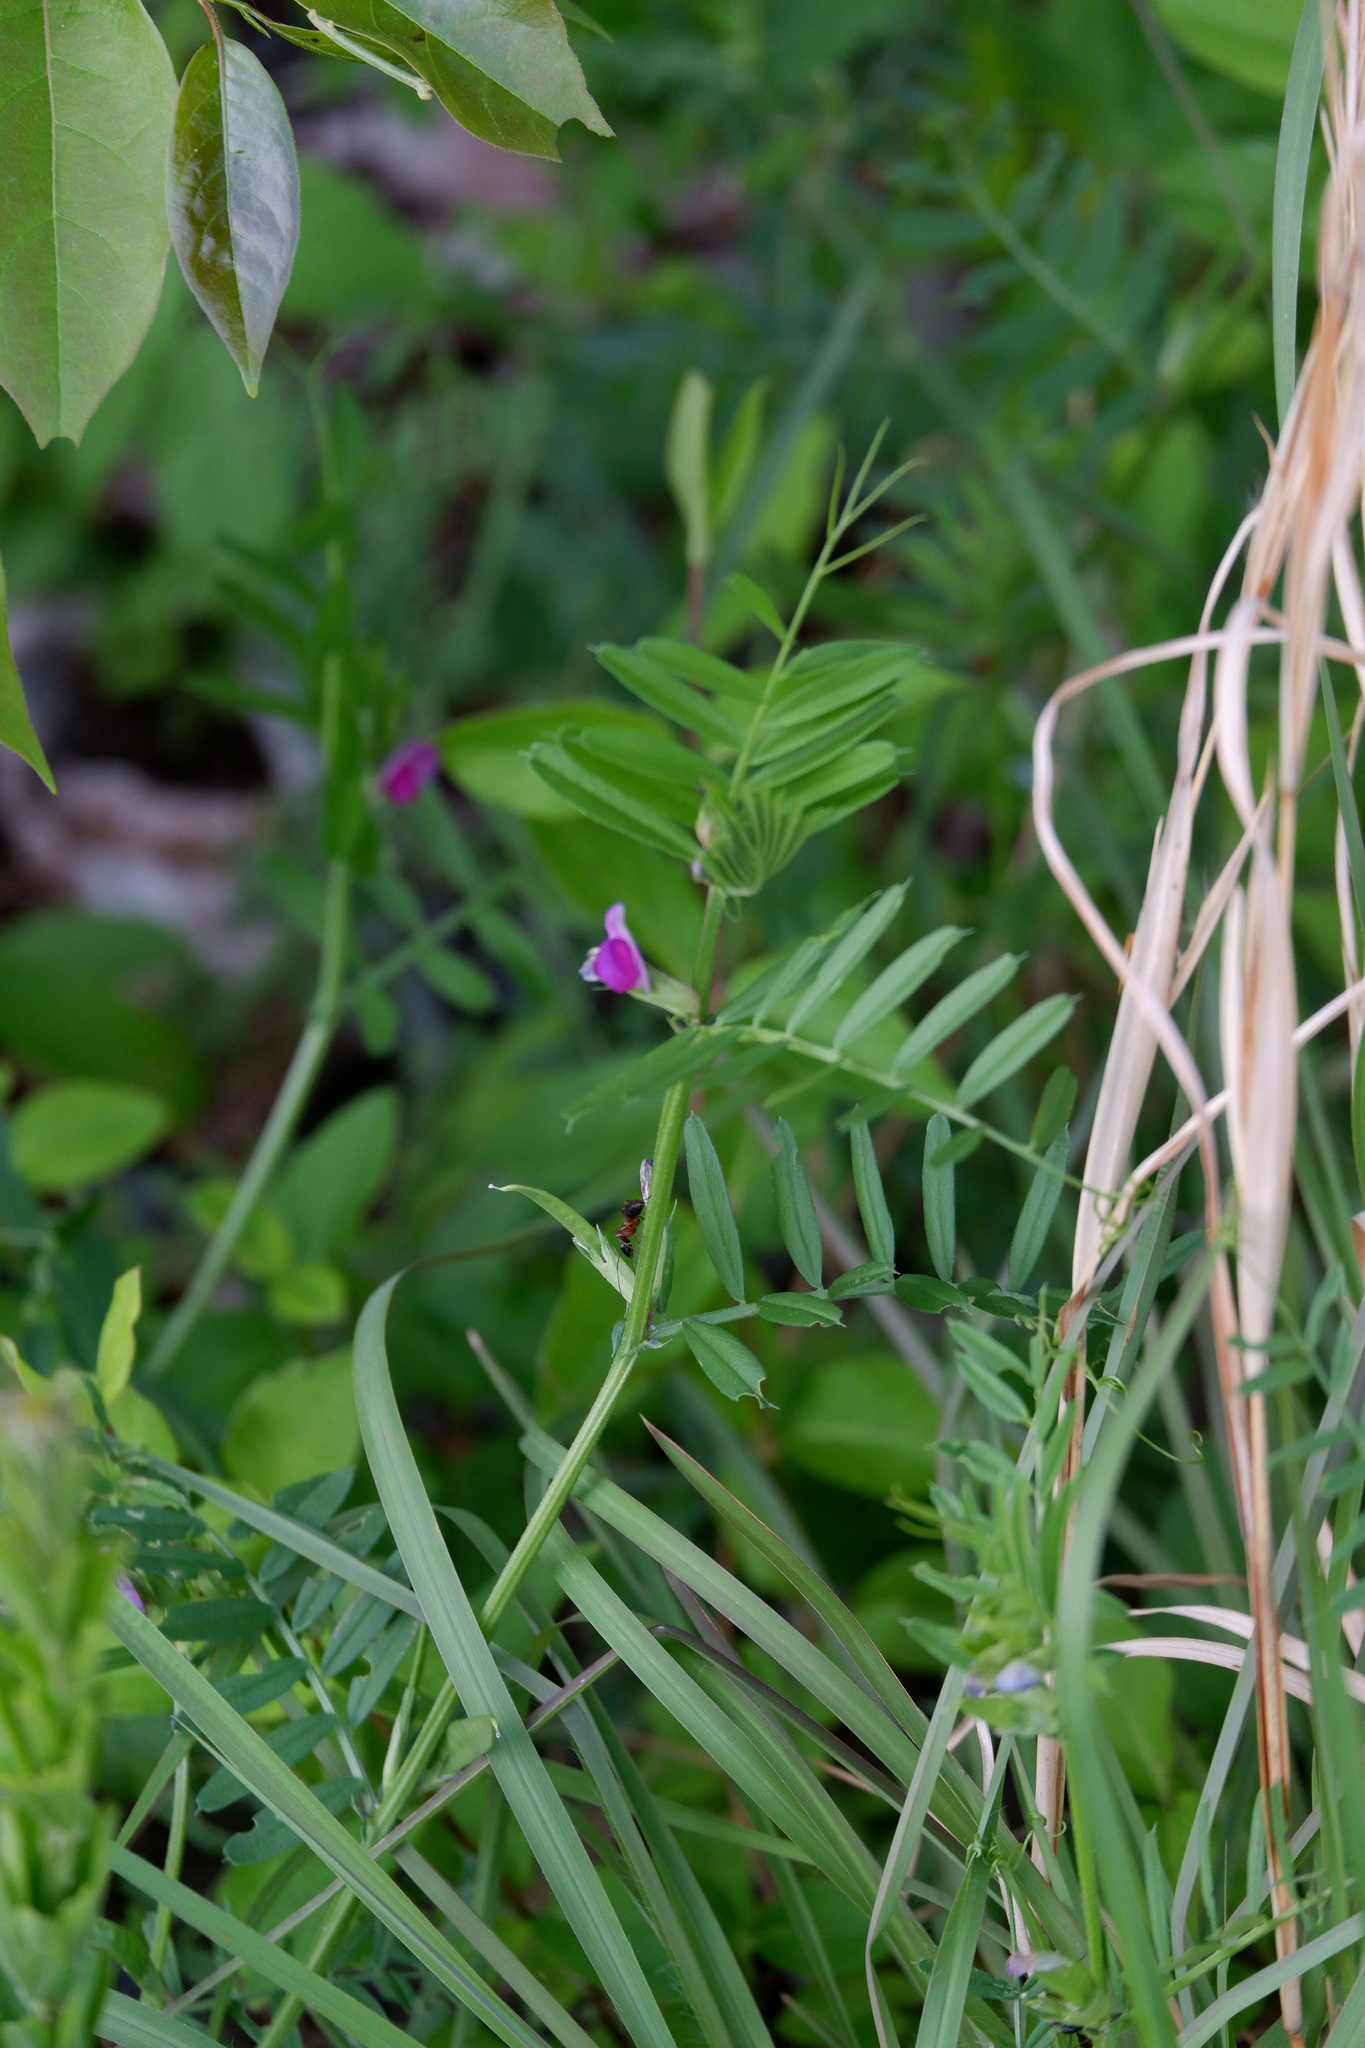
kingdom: Plantae
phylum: Tracheophyta
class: Magnoliopsida
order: Fabales
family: Fabaceae
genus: Vicia
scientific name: Vicia sativa
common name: Garden vetch
